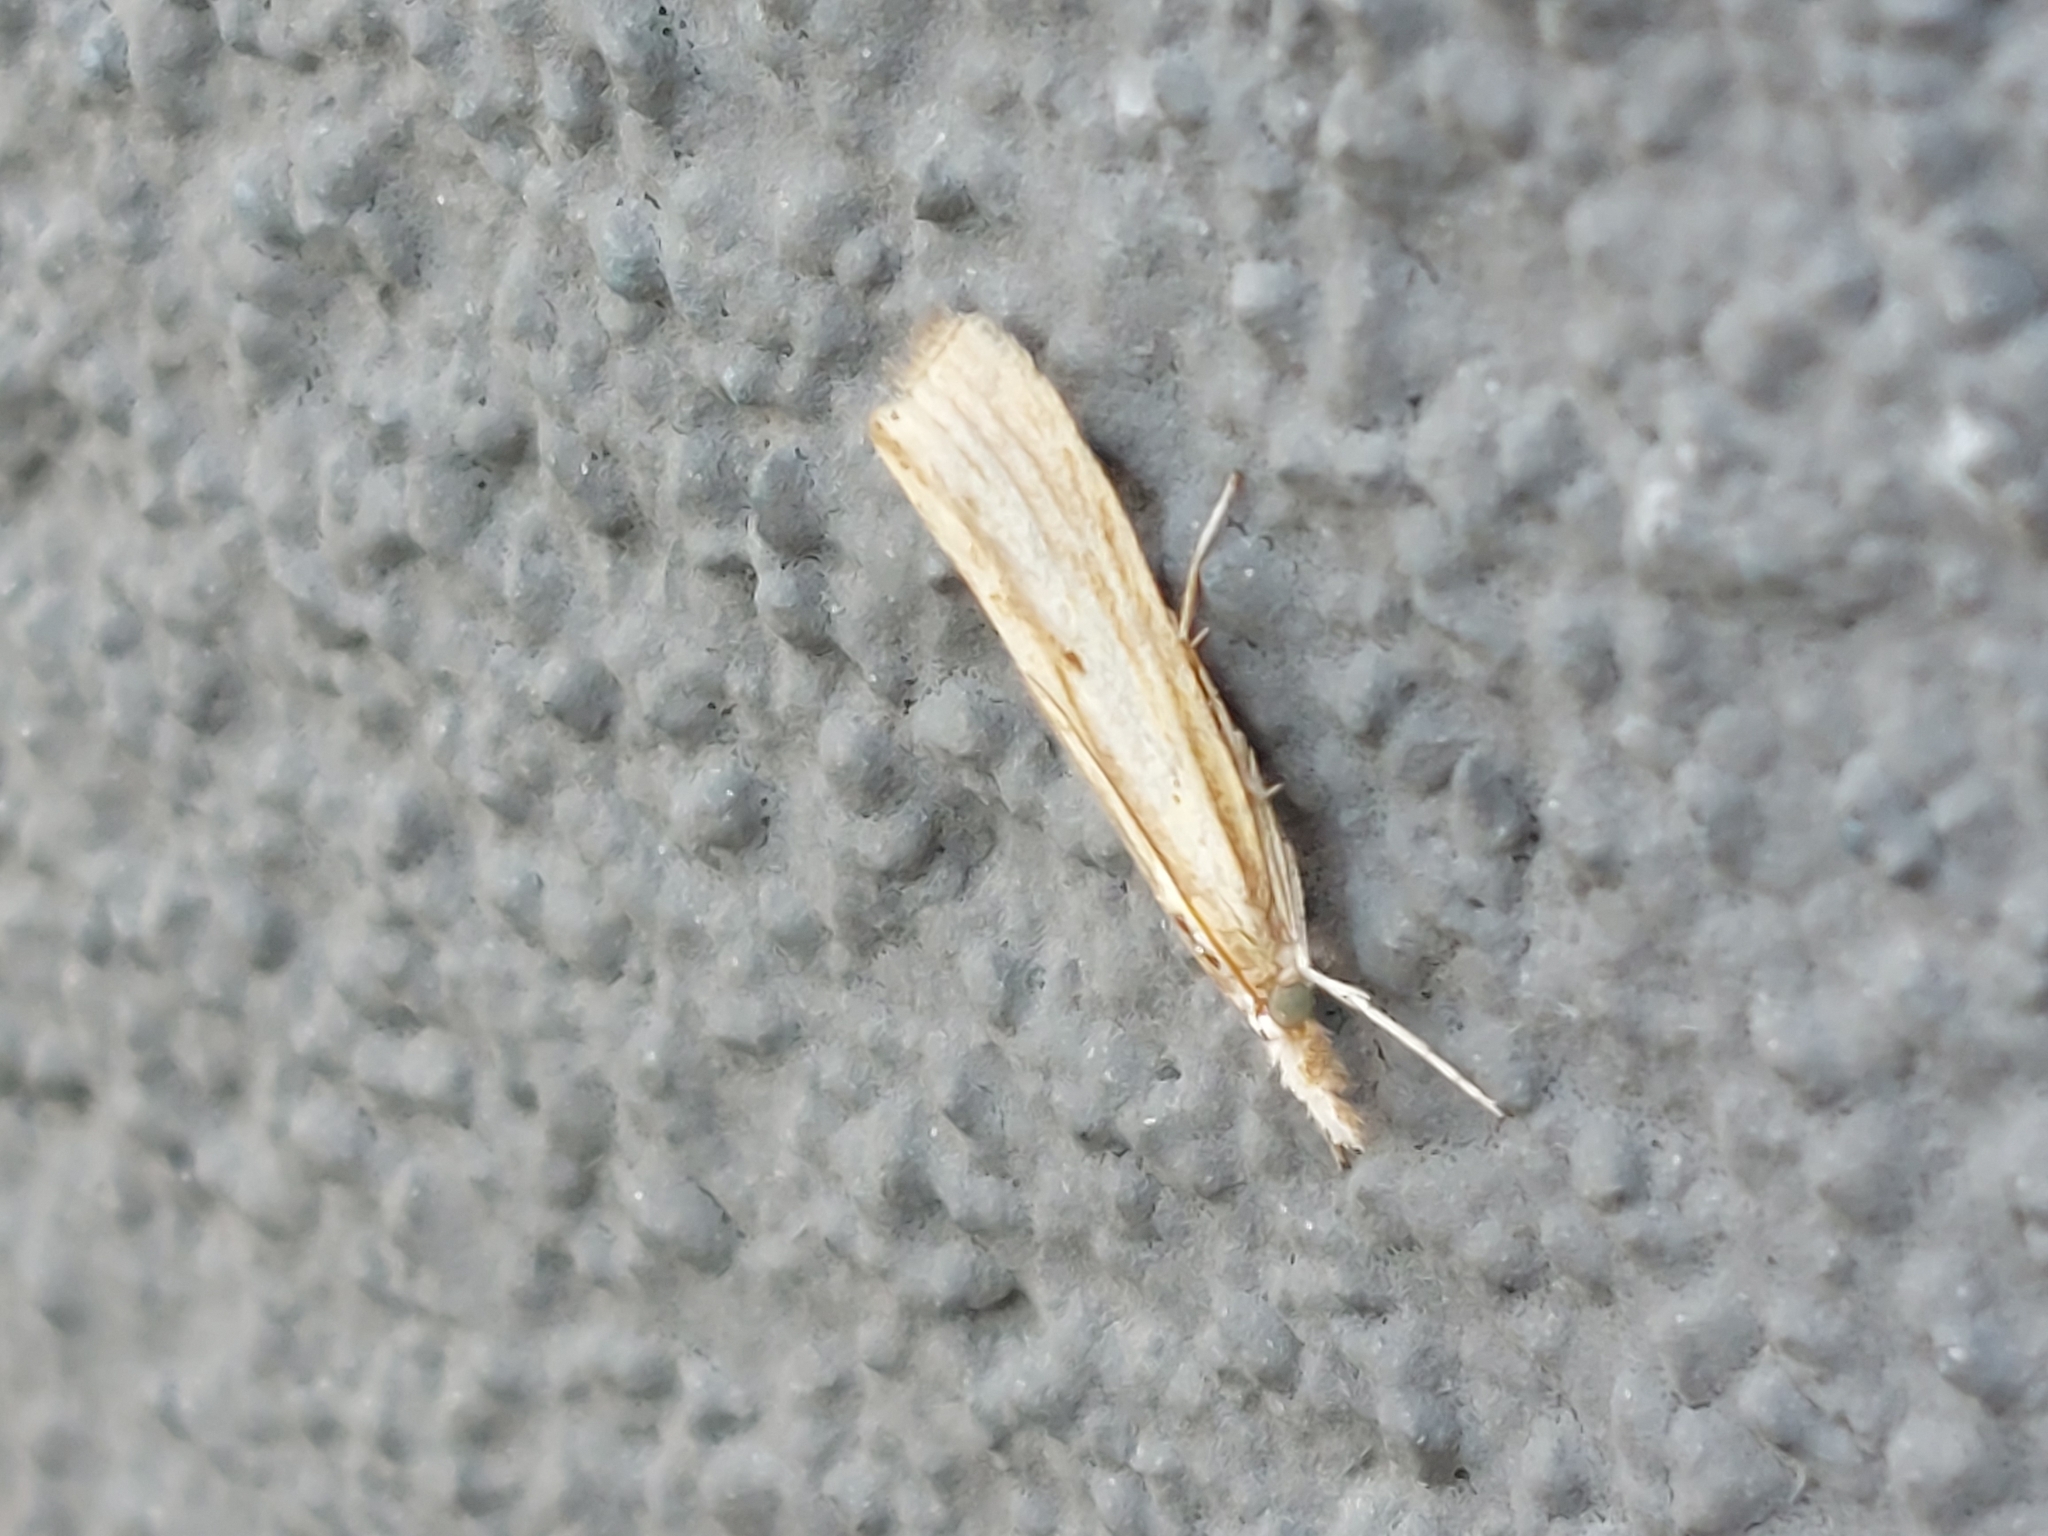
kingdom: Animalia
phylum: Arthropoda
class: Insecta
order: Lepidoptera
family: Crambidae
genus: Agriphila
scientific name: Agriphila inquinatella
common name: Barred grass-veneer
